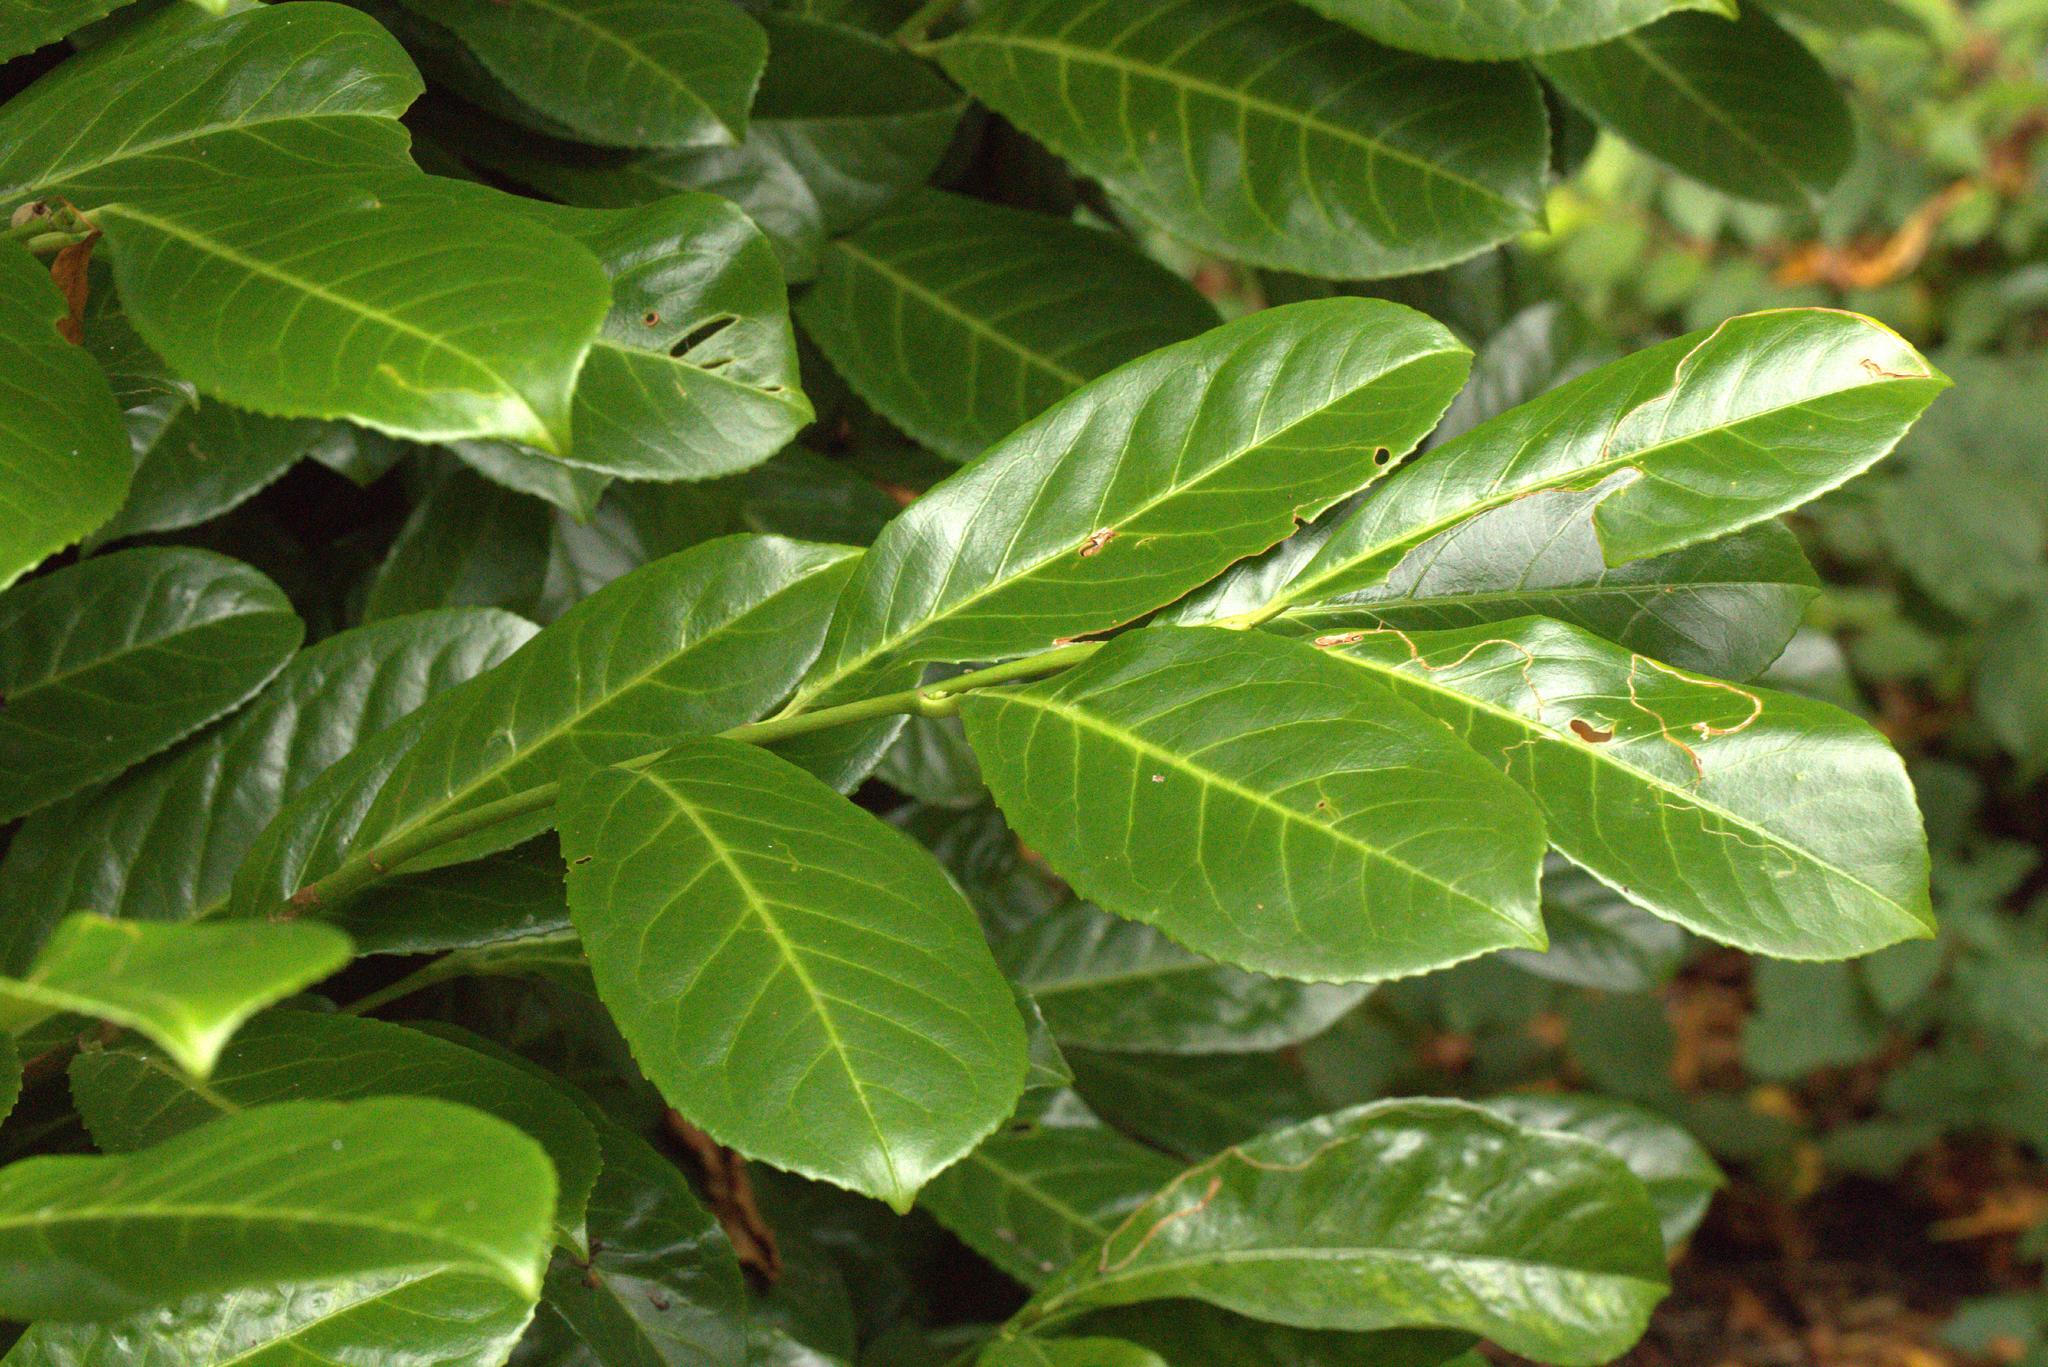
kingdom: Plantae
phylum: Tracheophyta
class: Magnoliopsida
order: Rosales
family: Rosaceae
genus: Prunus
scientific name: Prunus laurocerasus
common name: Cherry laurel
